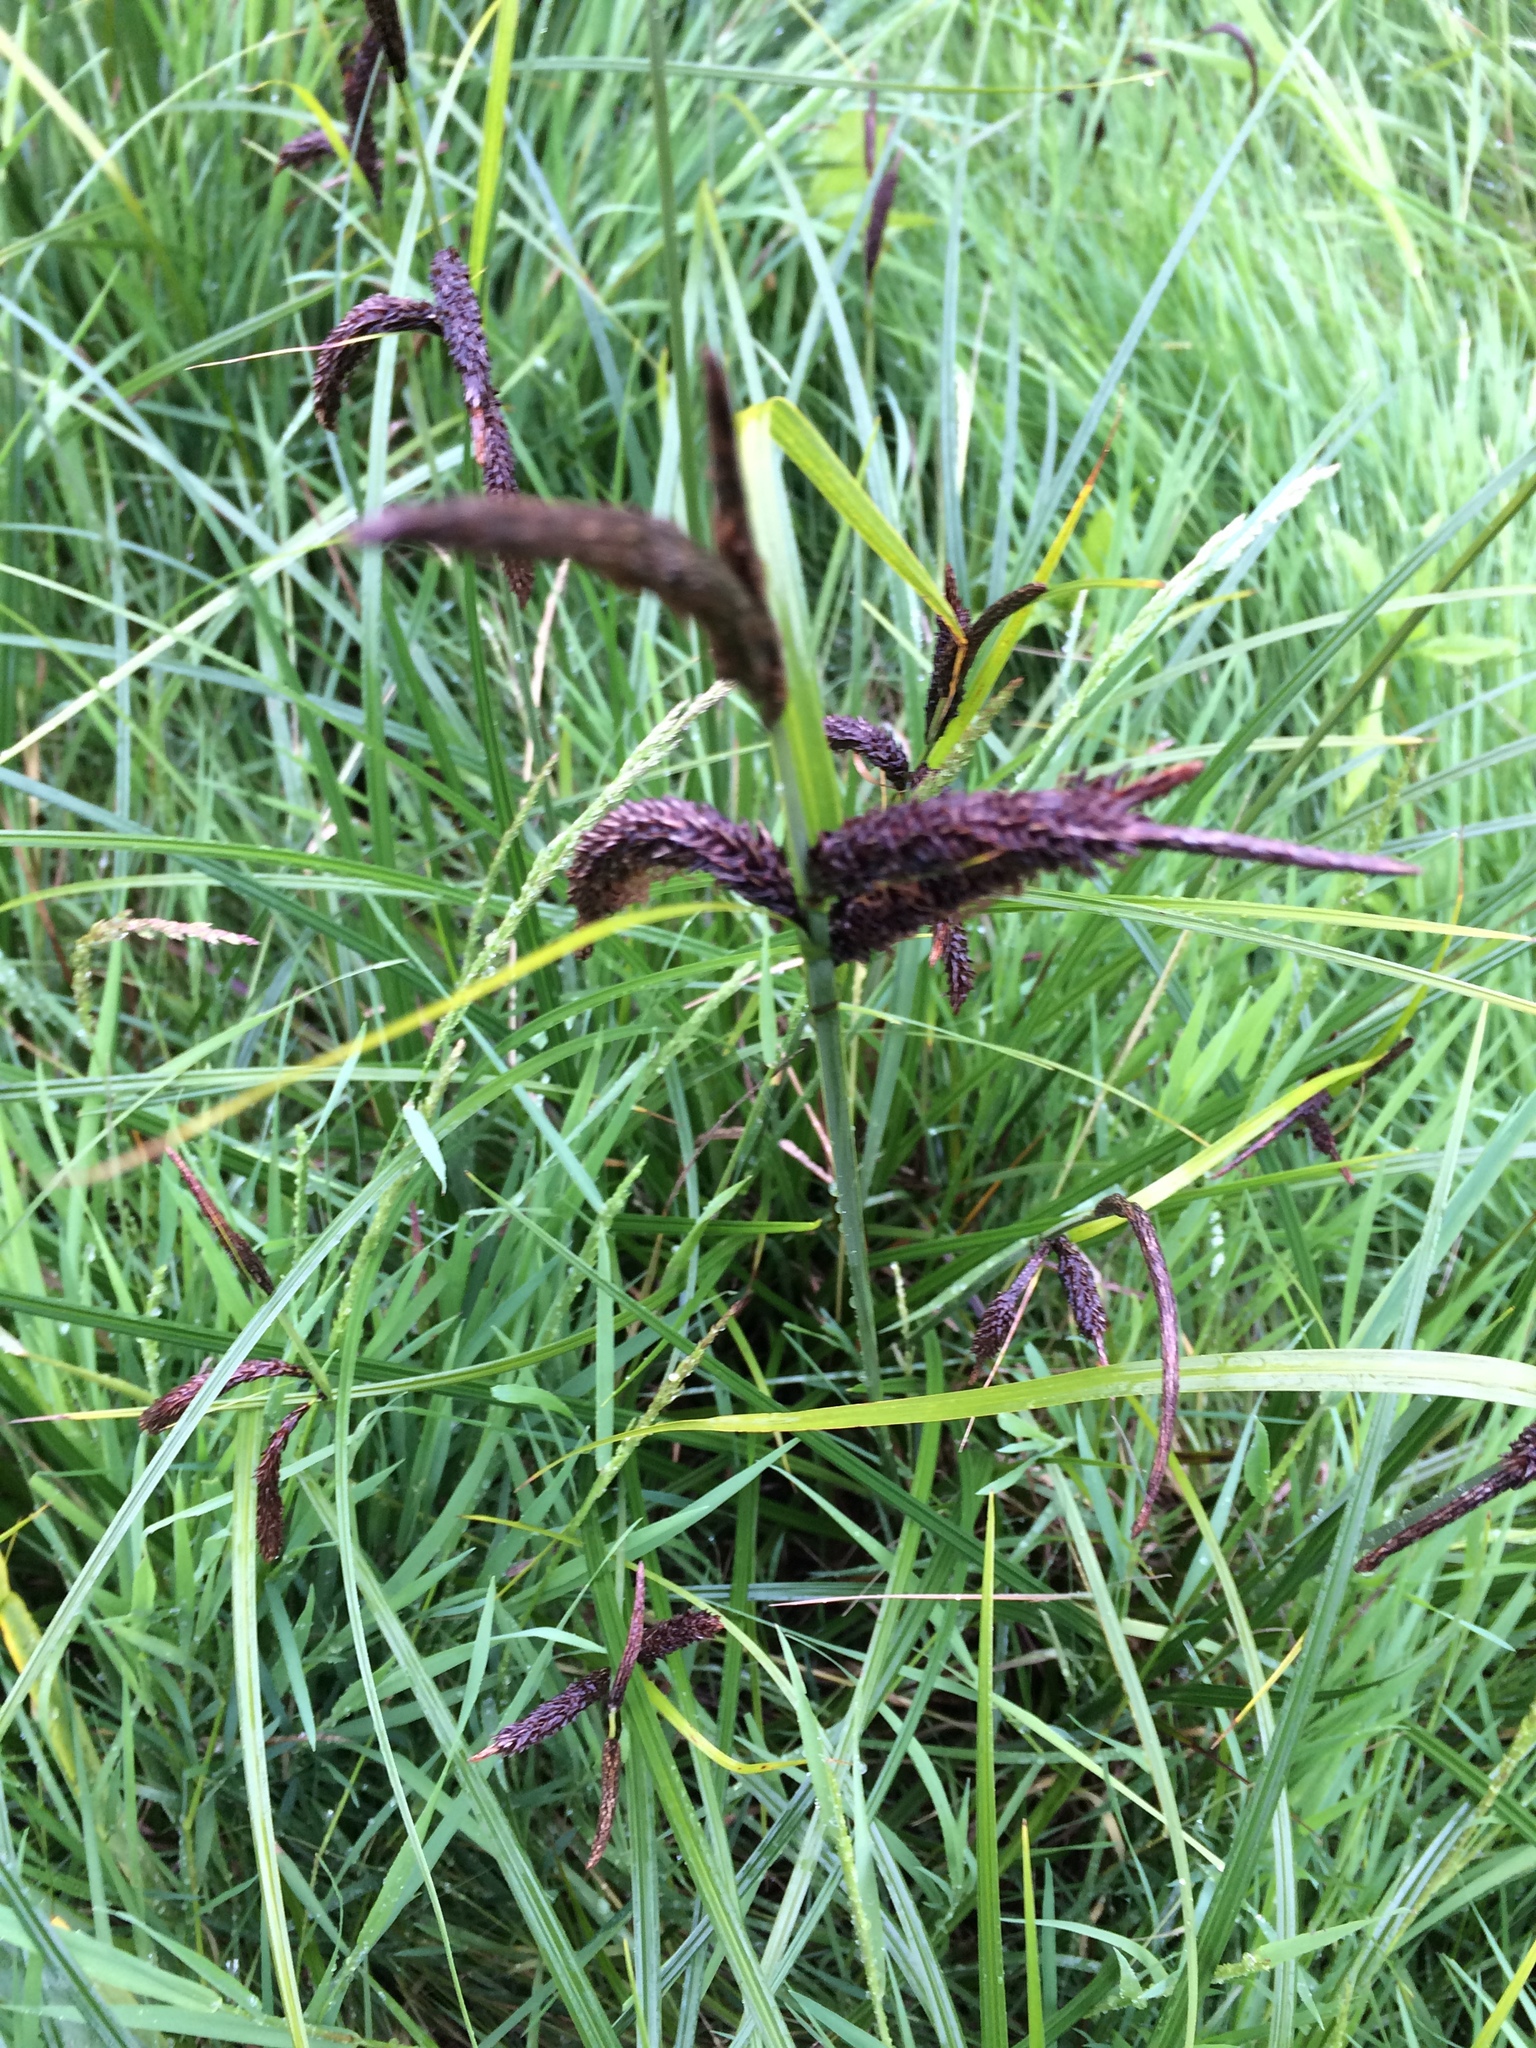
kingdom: Plantae
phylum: Tracheophyta
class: Liliopsida
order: Poales
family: Cyperaceae
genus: Carex
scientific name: Carex obnupta
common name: Slough sedge
